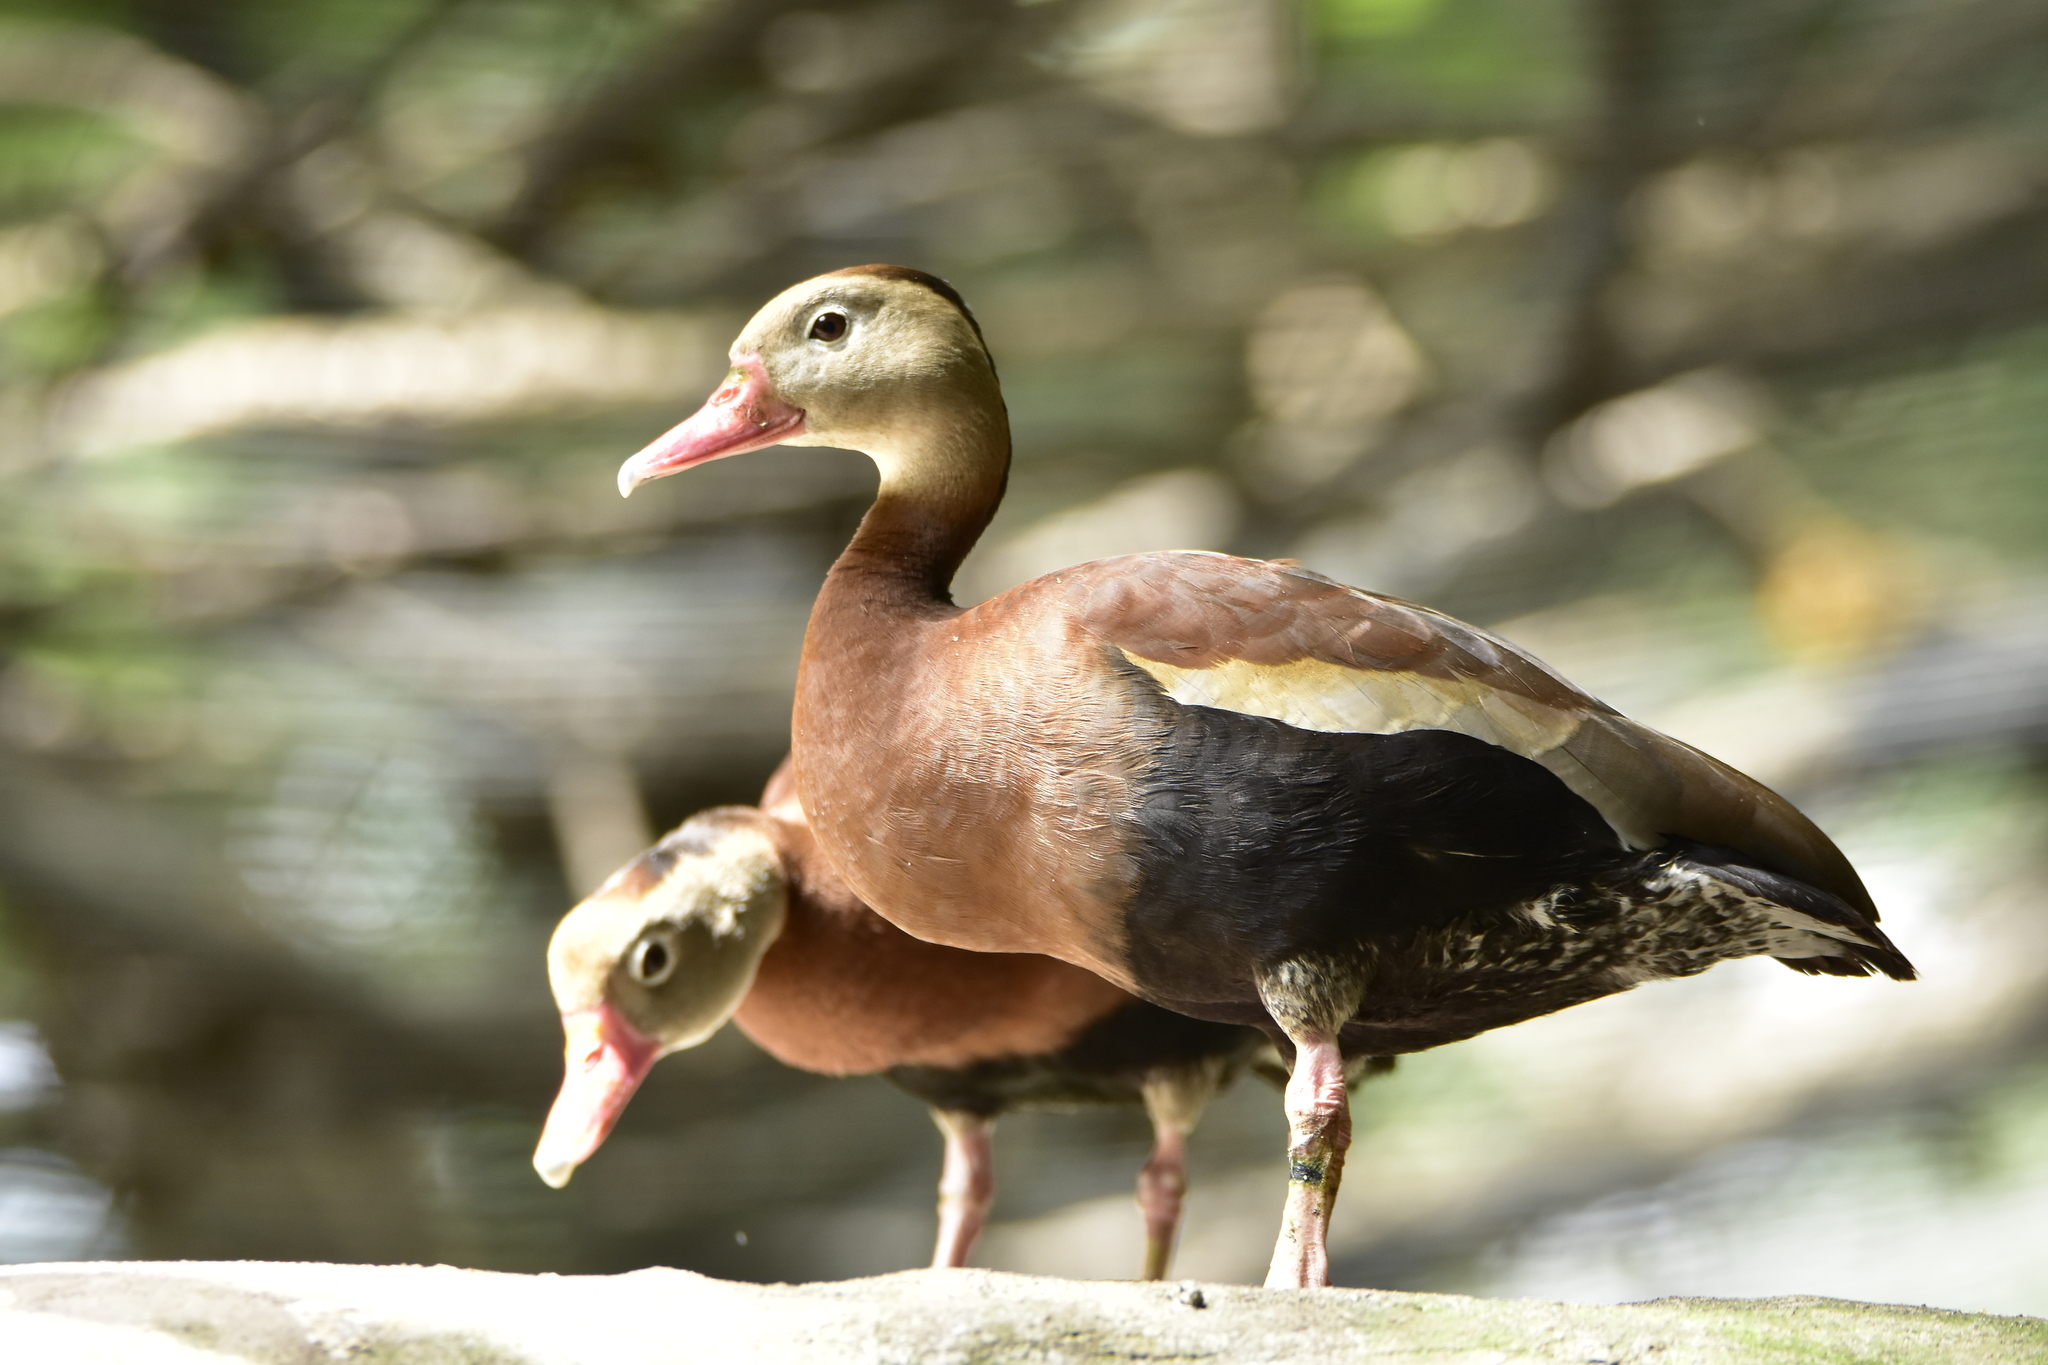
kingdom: Animalia
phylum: Chordata
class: Aves
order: Anseriformes
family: Anatidae
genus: Dendrocygna
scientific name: Dendrocygna autumnalis
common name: Black-bellied whistling duck
